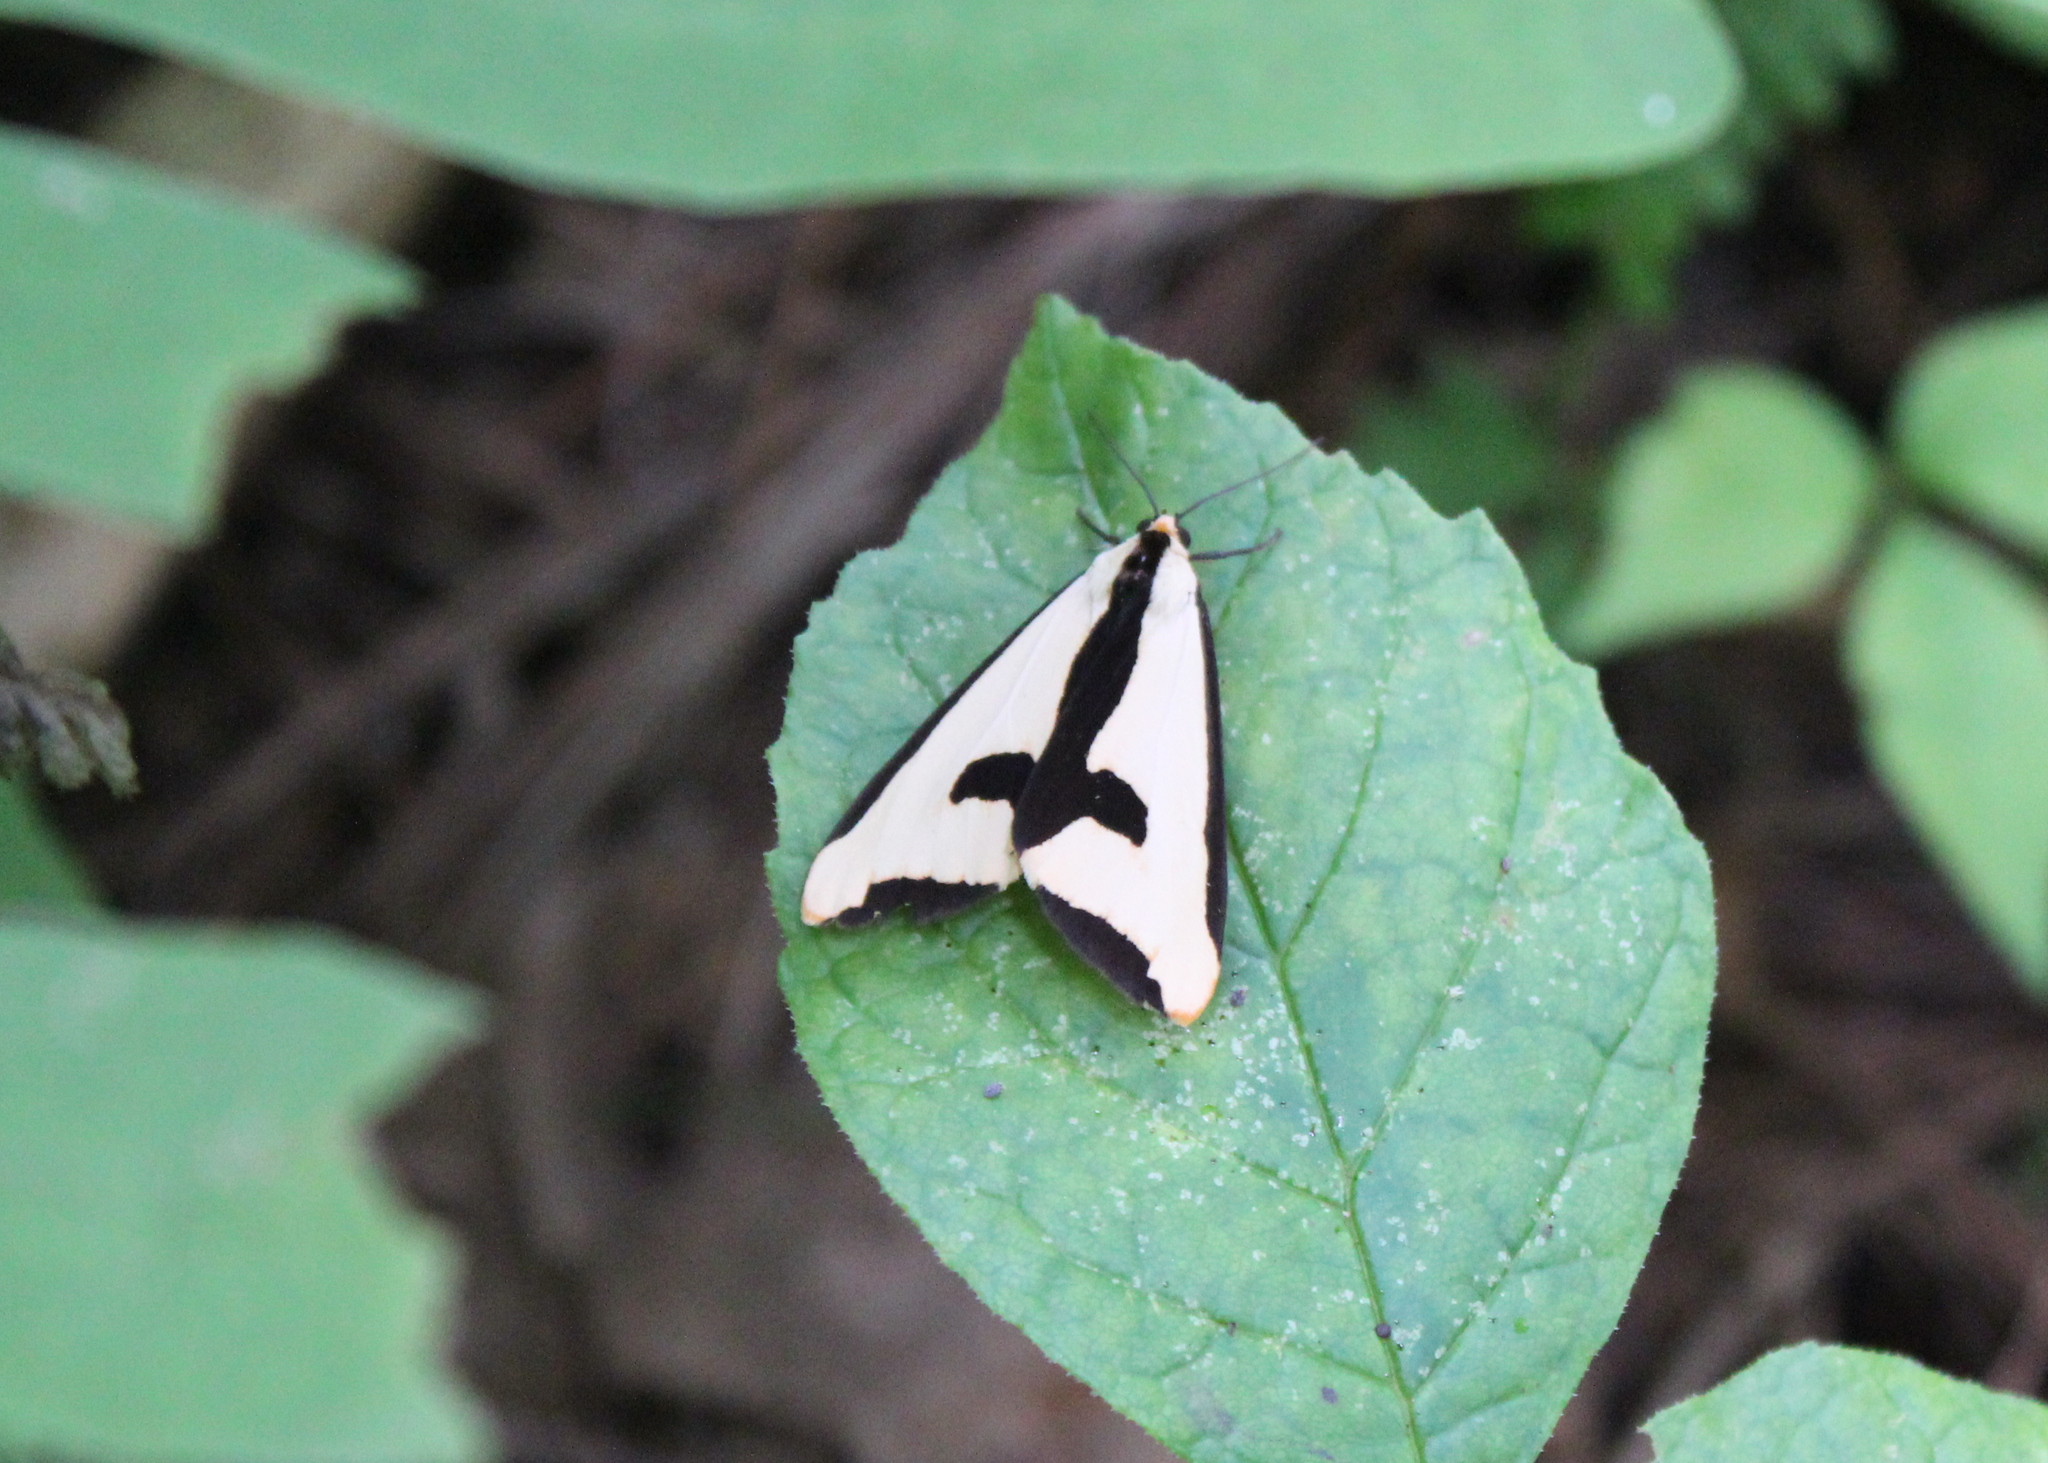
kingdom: Animalia
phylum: Arthropoda
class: Insecta
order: Lepidoptera
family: Erebidae
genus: Haploa
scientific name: Haploa clymene
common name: Clymene moth
